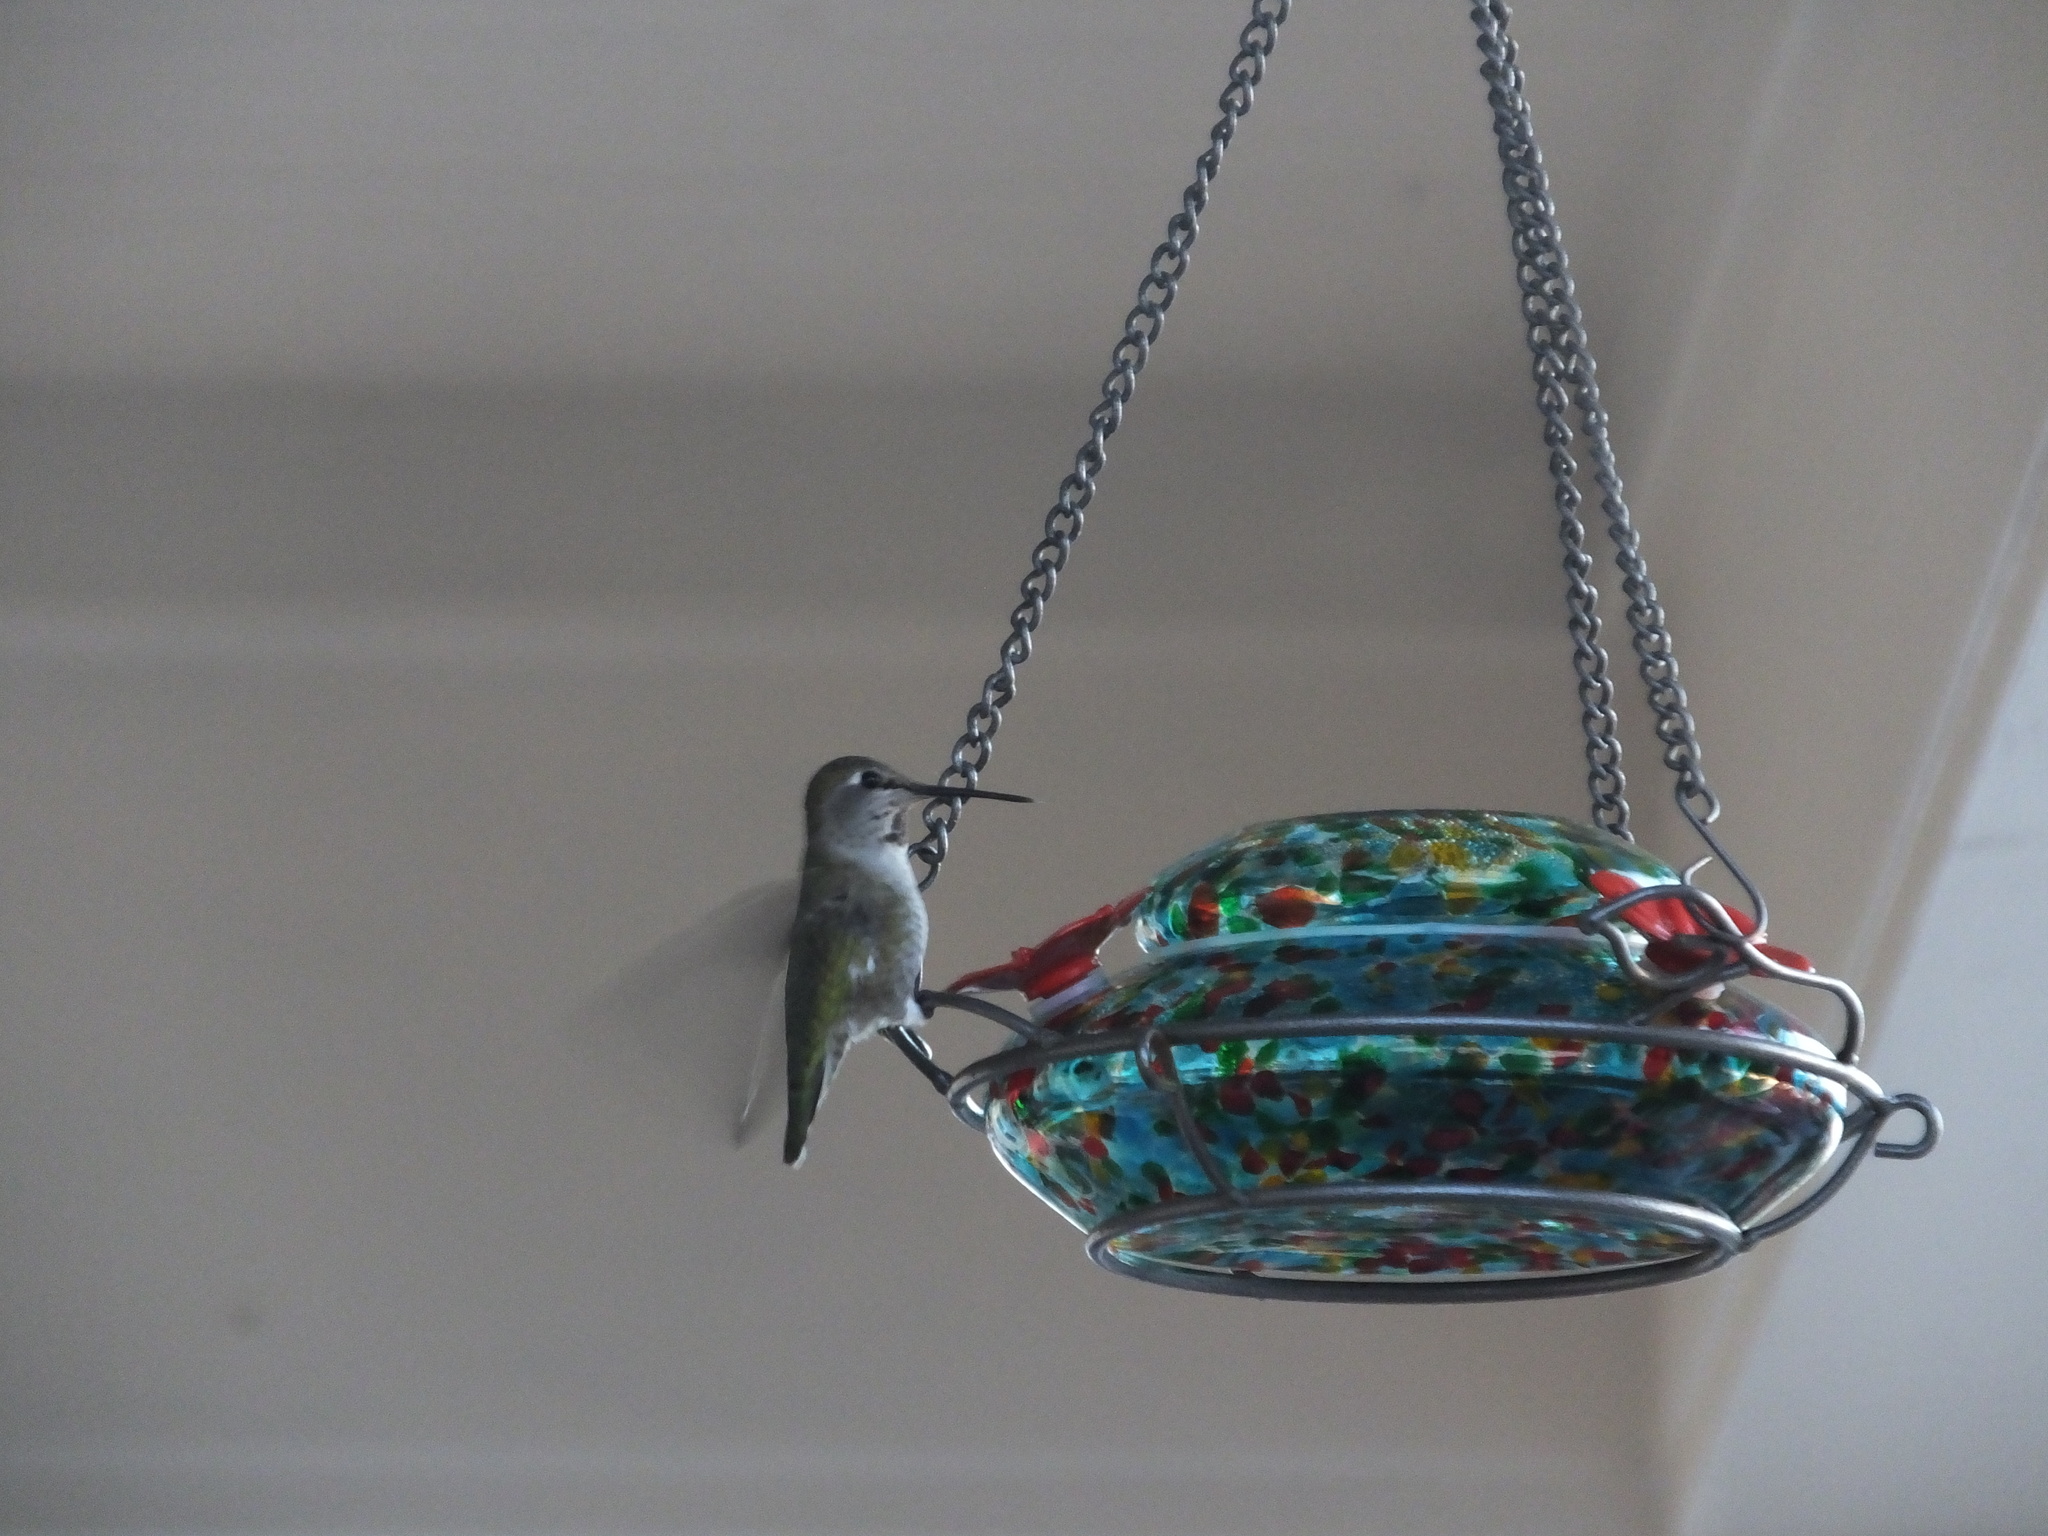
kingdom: Animalia
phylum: Chordata
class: Aves
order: Apodiformes
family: Trochilidae
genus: Calypte
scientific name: Calypte anna
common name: Anna's hummingbird
